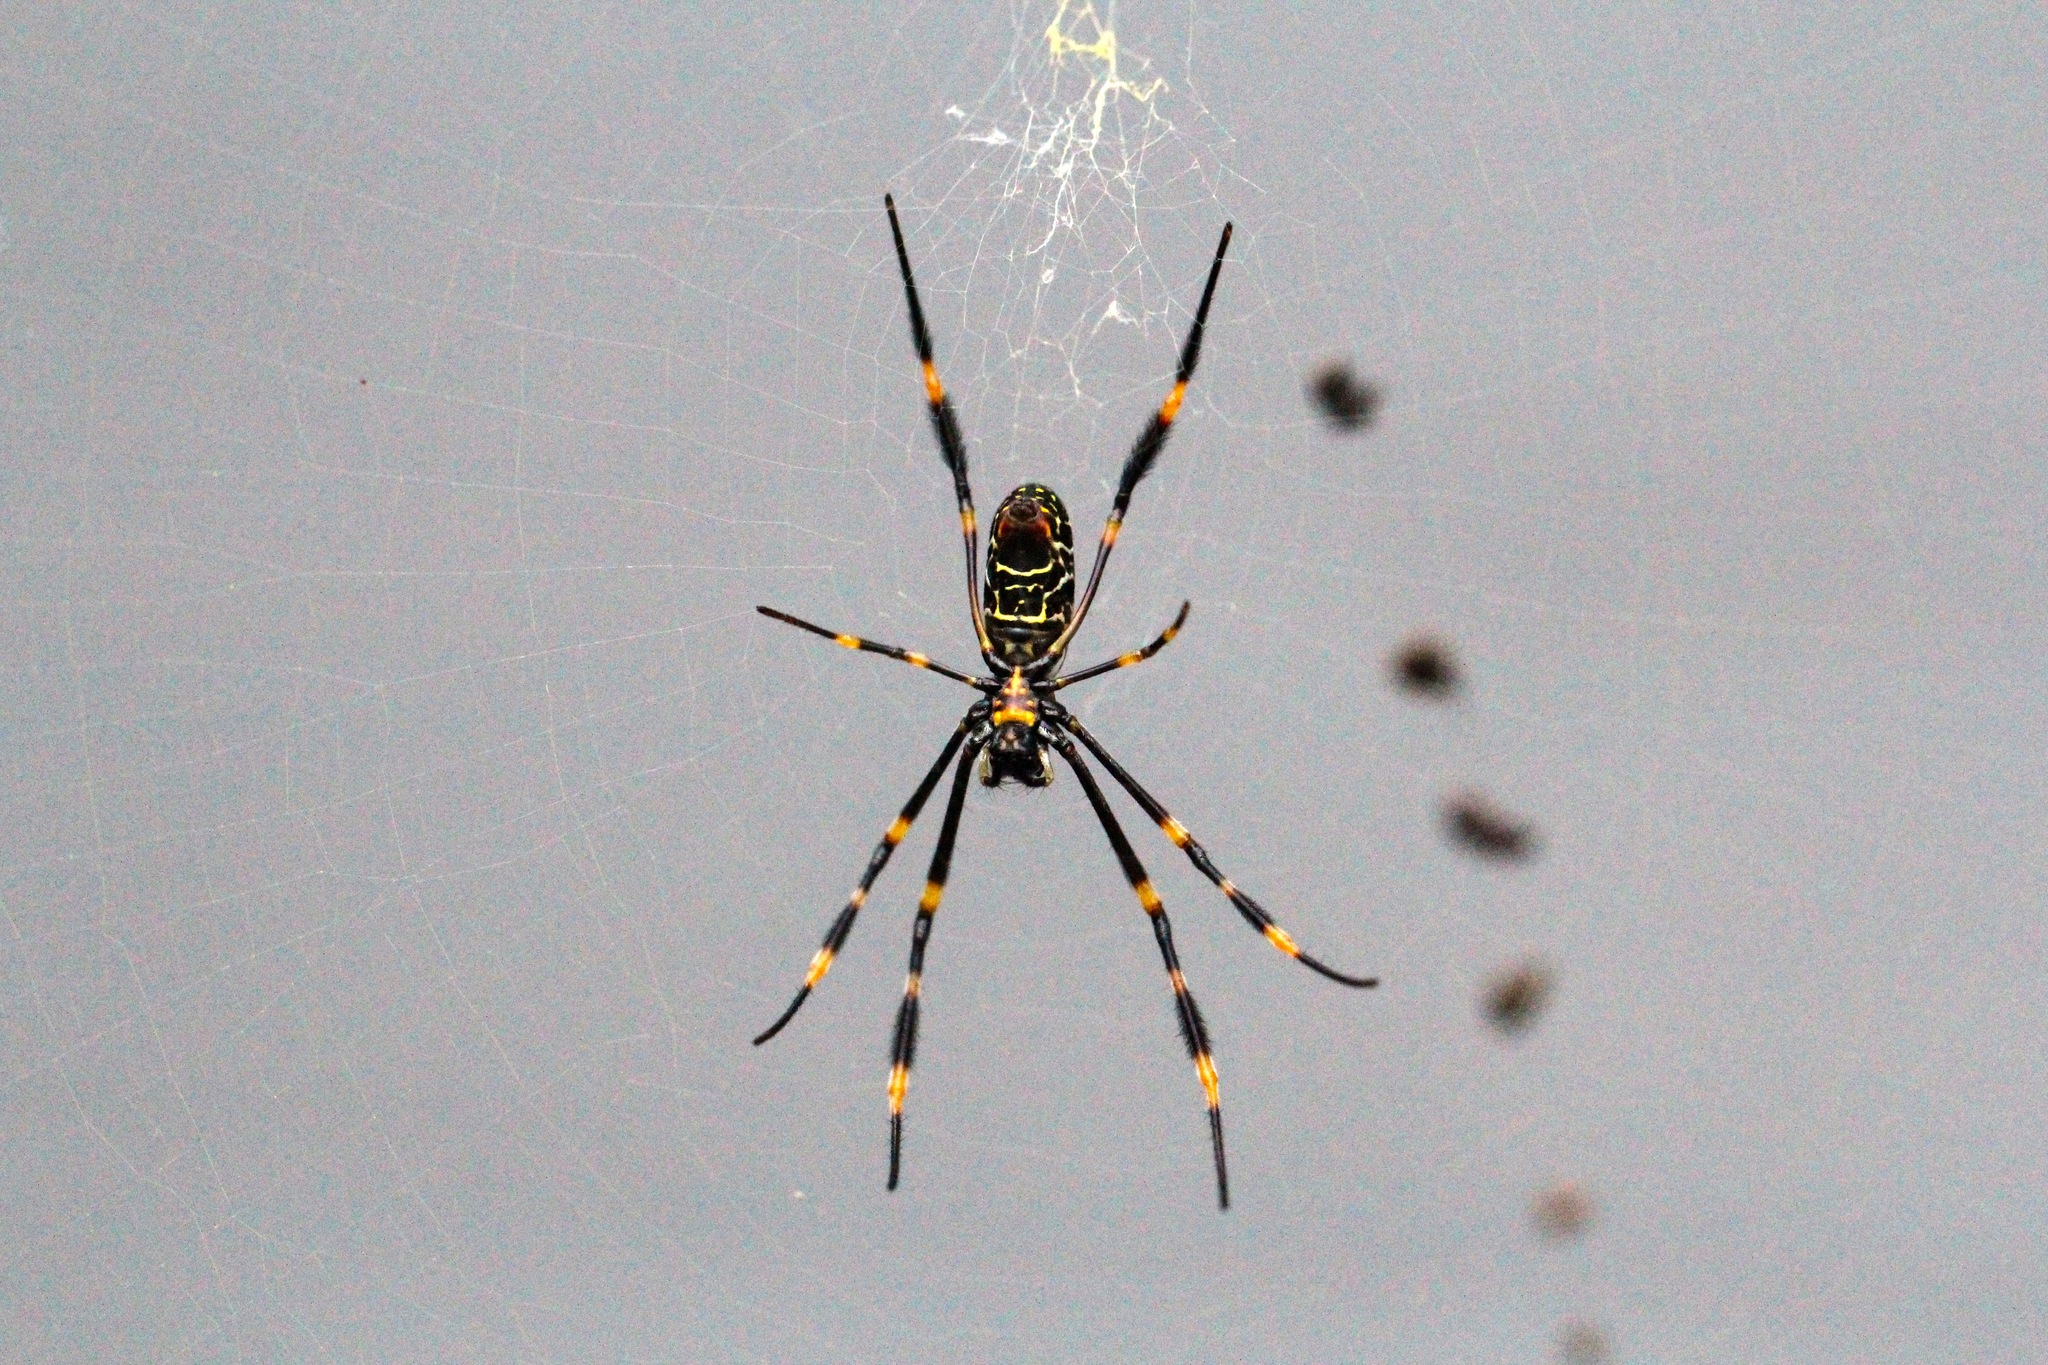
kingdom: Animalia
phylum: Arthropoda
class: Arachnida
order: Araneae
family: Araneidae
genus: Trichonephila
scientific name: Trichonephila plumipes
